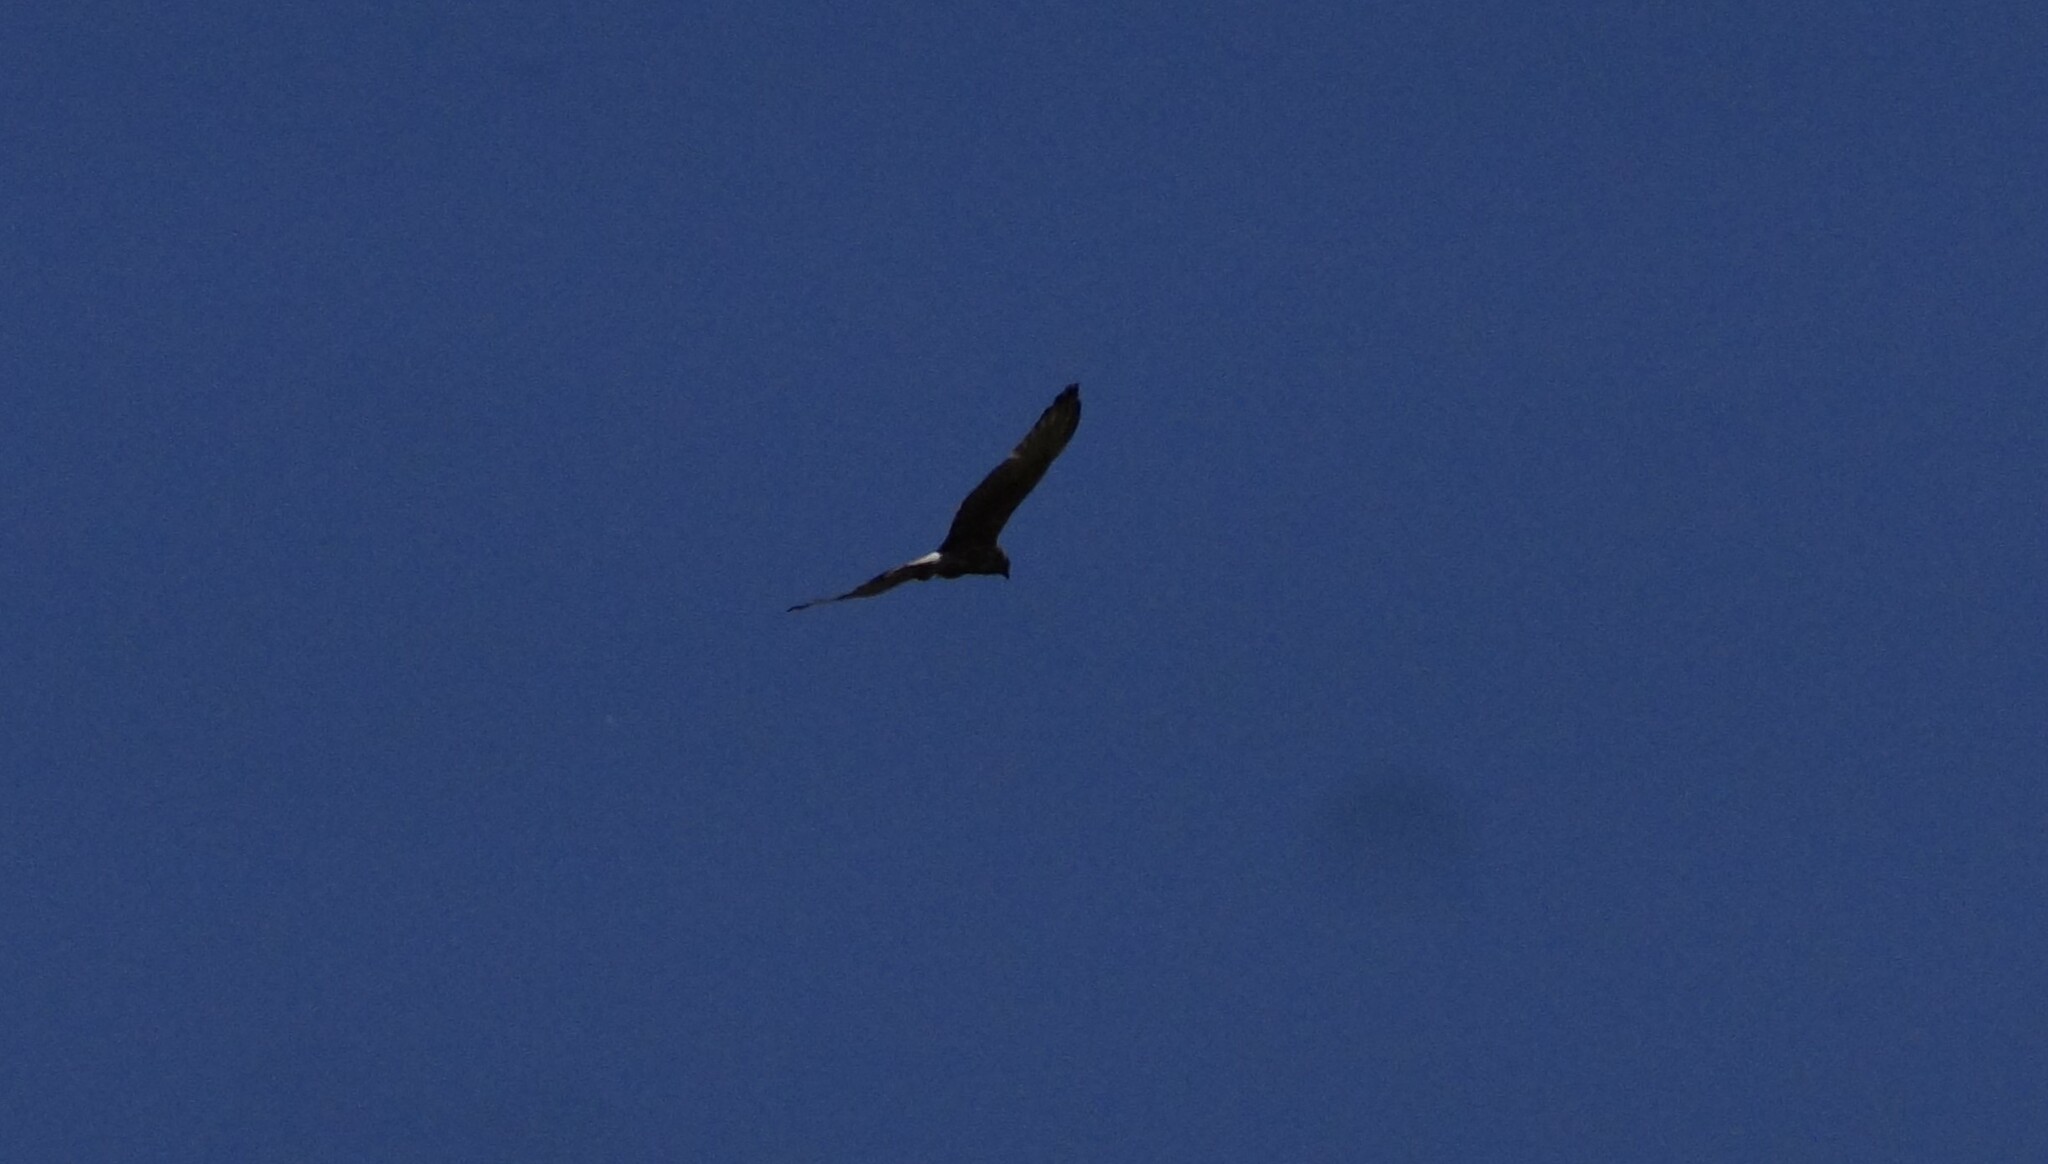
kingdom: Animalia
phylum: Chordata
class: Aves
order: Accipitriformes
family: Accipitridae
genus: Circus
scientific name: Circus approximans
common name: Swamp harrier
